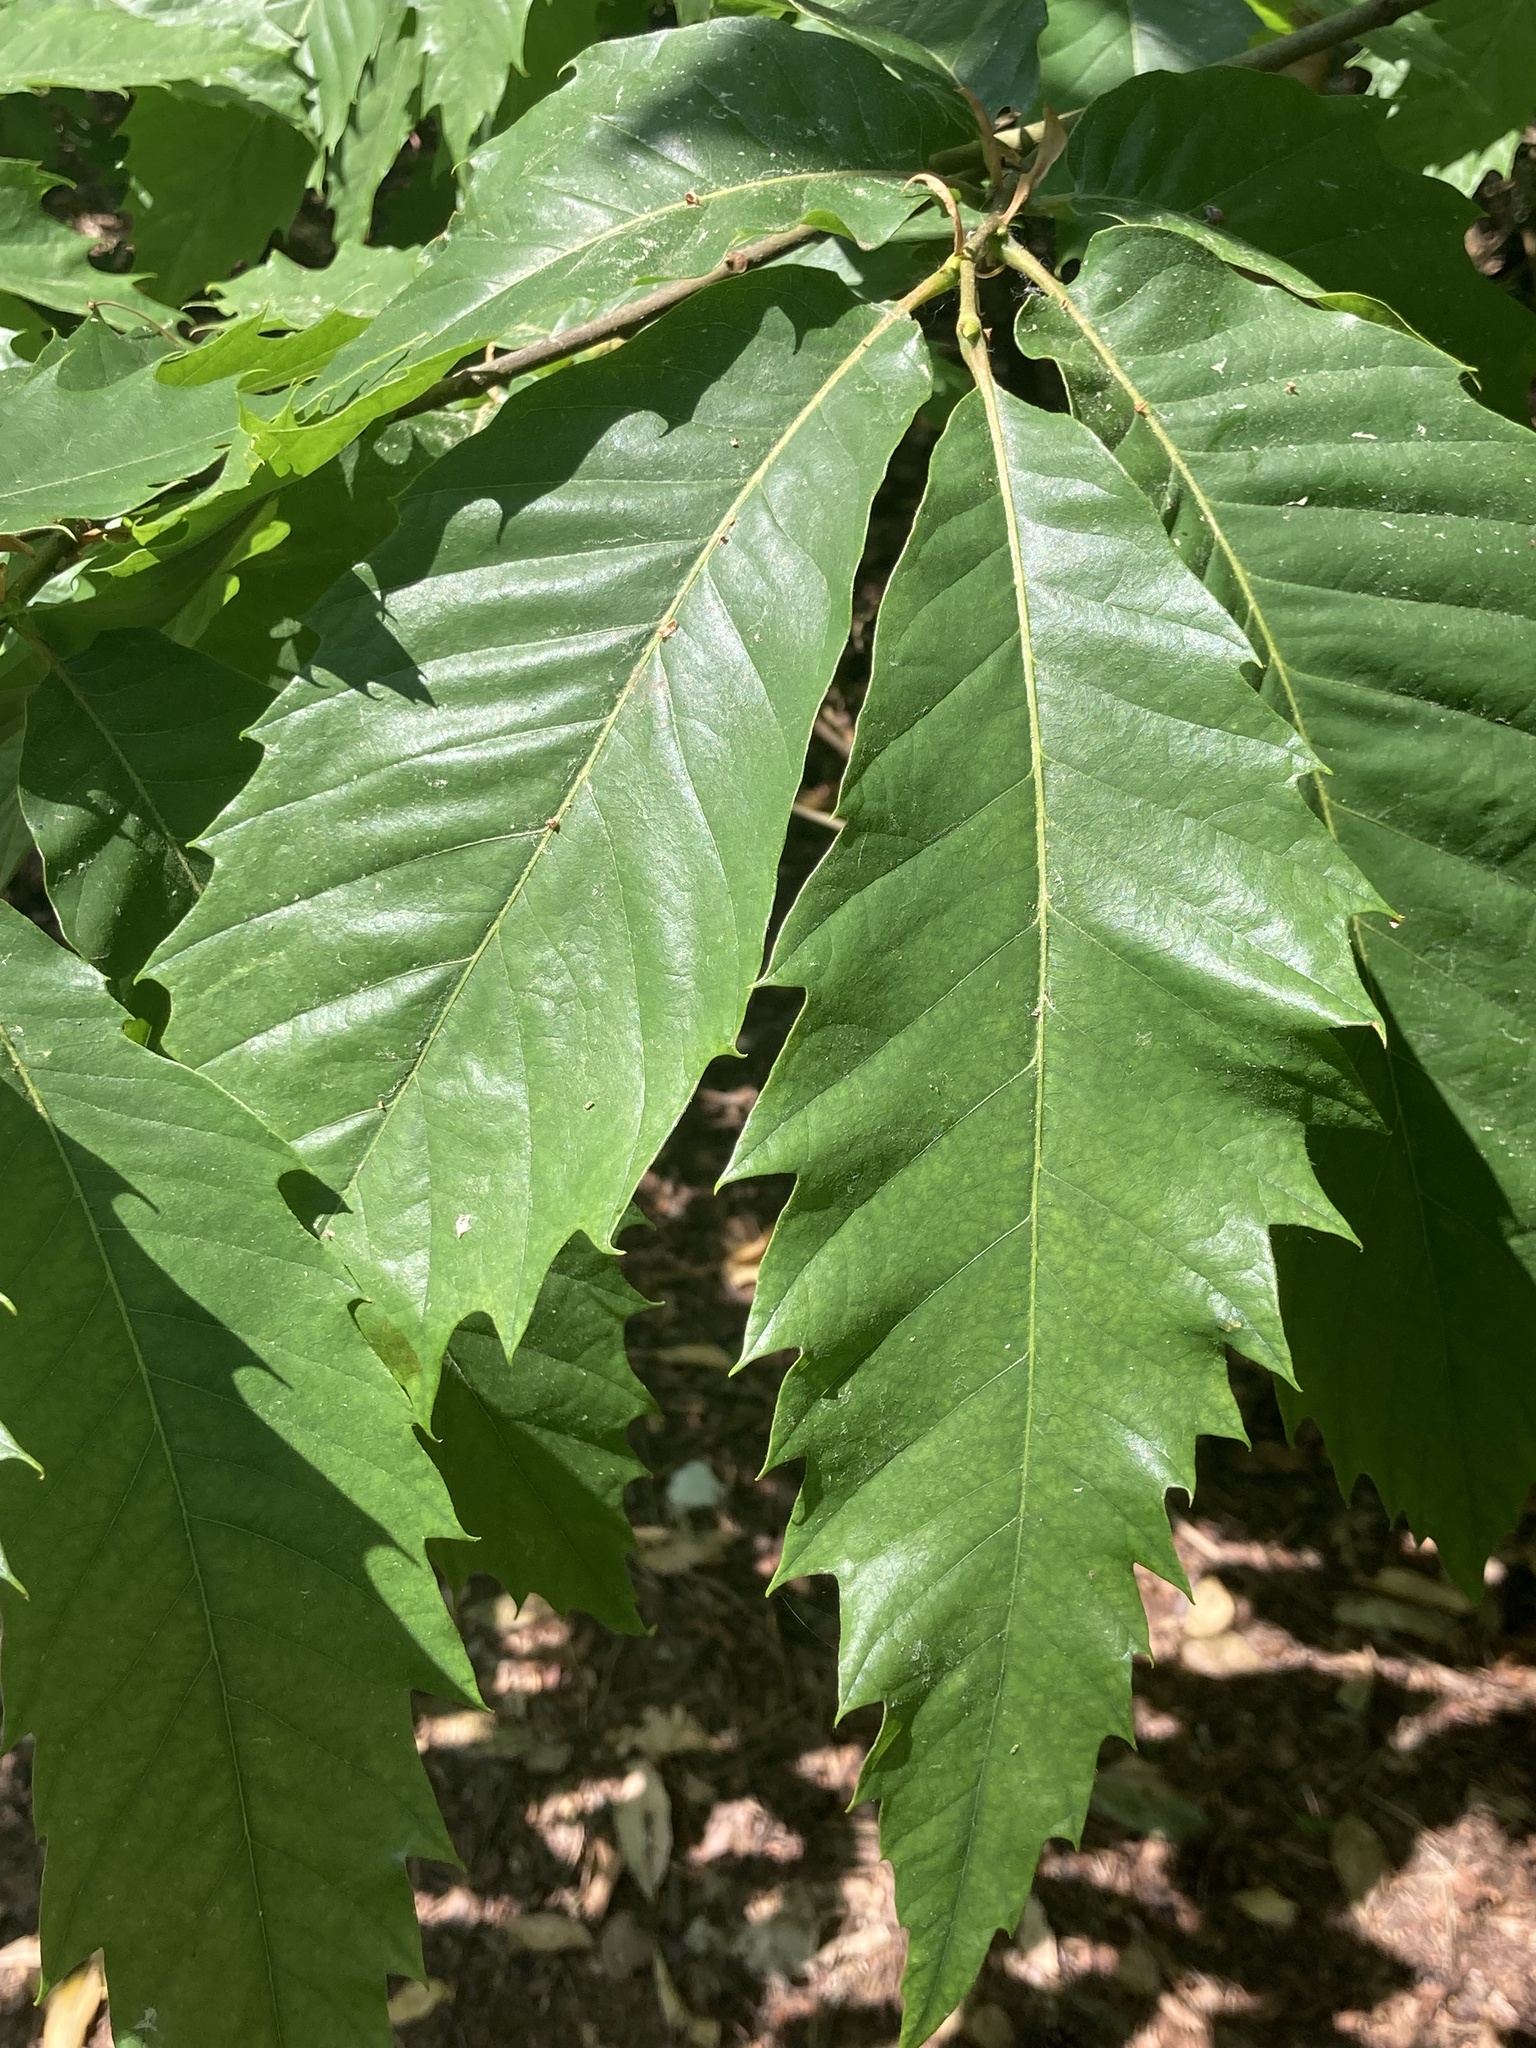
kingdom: Plantae
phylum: Tracheophyta
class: Magnoliopsida
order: Fagales
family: Fagaceae
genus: Castanea
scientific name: Castanea sativa
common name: Sweet chestnut
